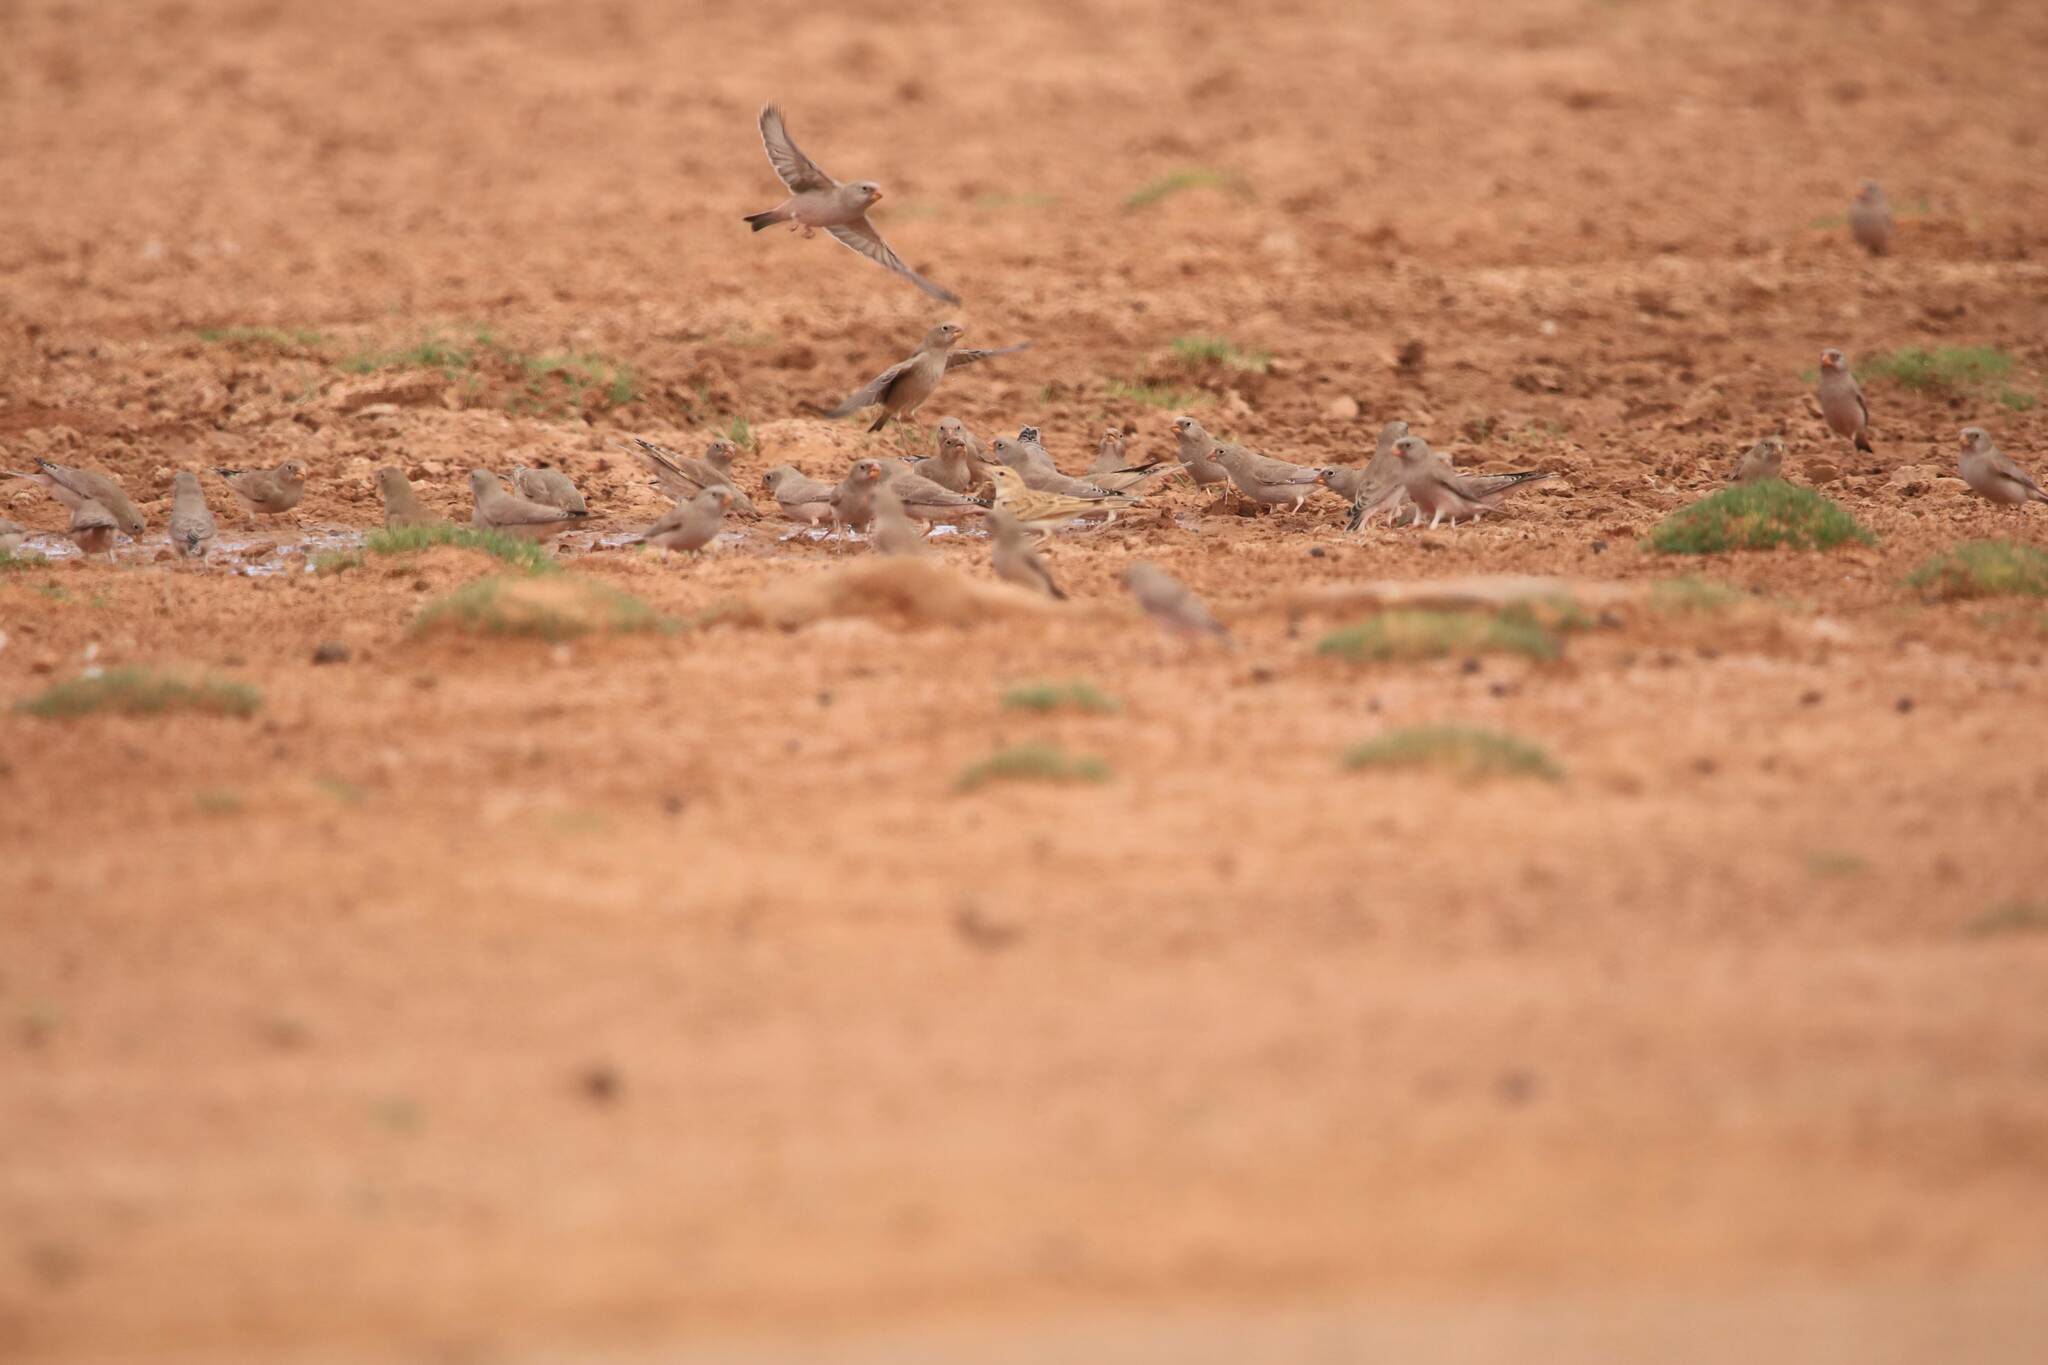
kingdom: Animalia
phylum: Chordata
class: Aves
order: Passeriformes
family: Fringillidae
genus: Bucanetes
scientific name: Bucanetes githagineus
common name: Trumpeter finch
